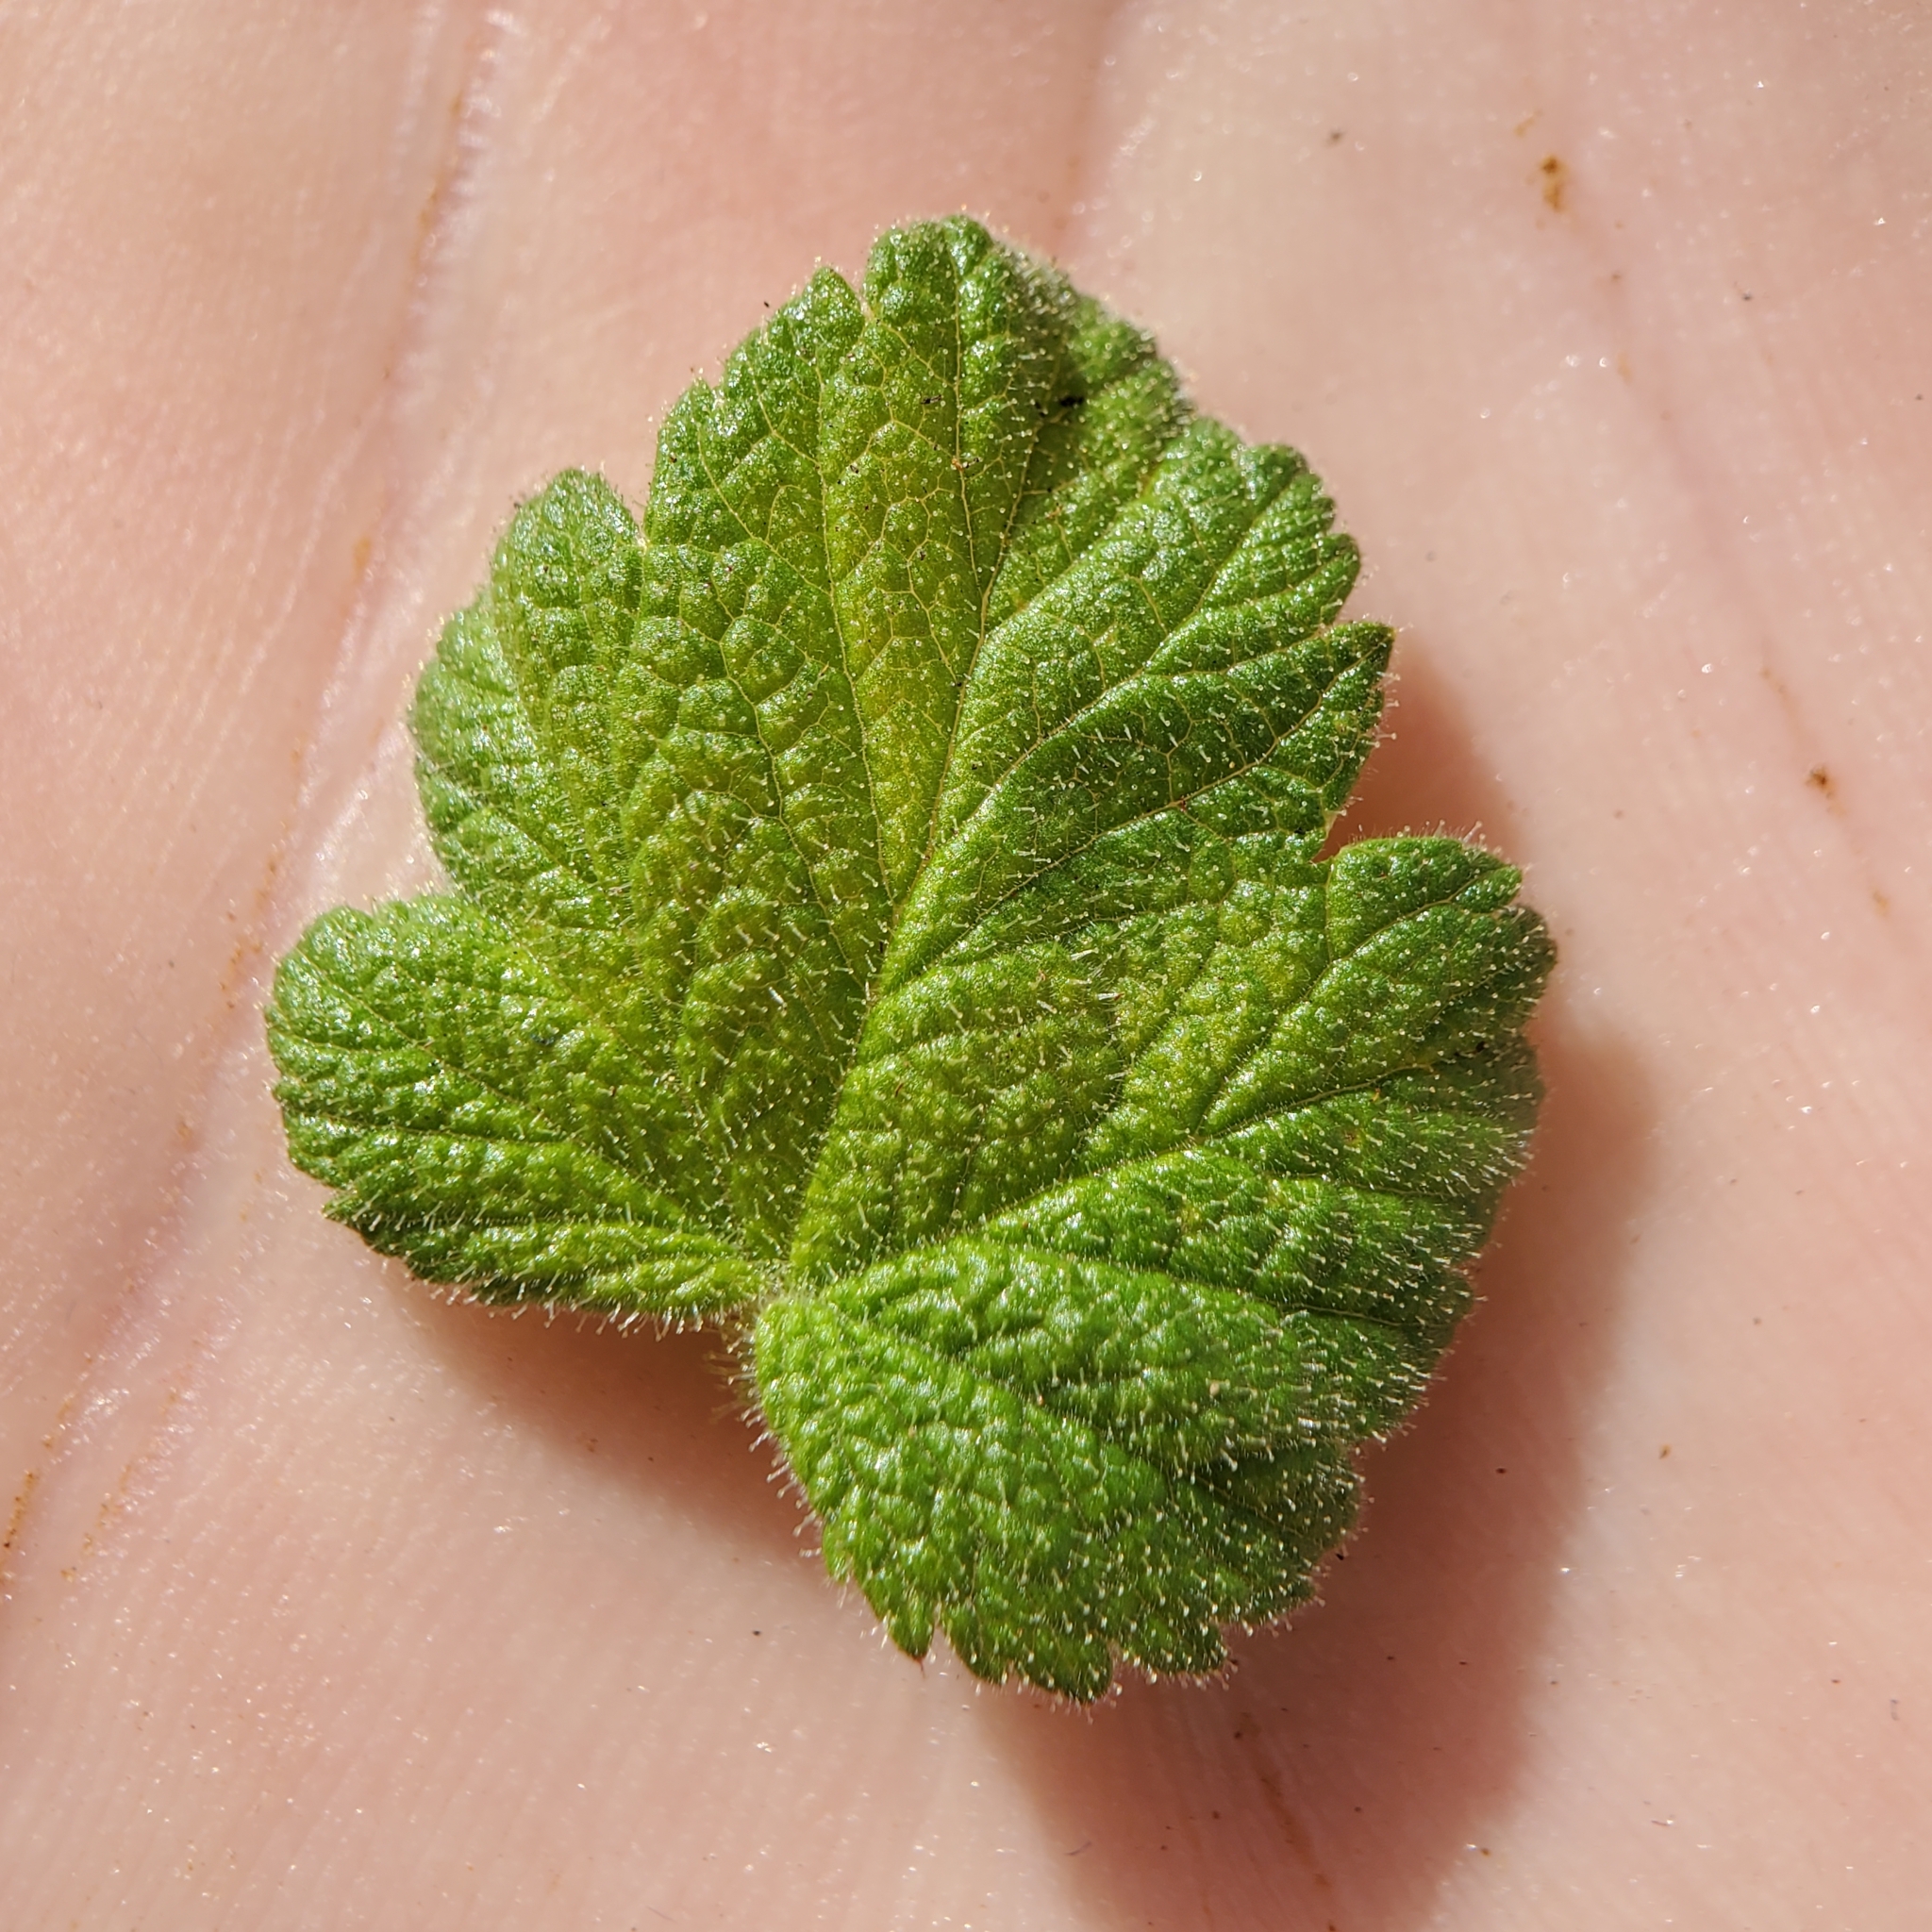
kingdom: Plantae
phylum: Tracheophyta
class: Magnoliopsida
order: Saxifragales
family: Grossulariaceae
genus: Ribes
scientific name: Ribes malvaceum
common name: Chaparral currant
